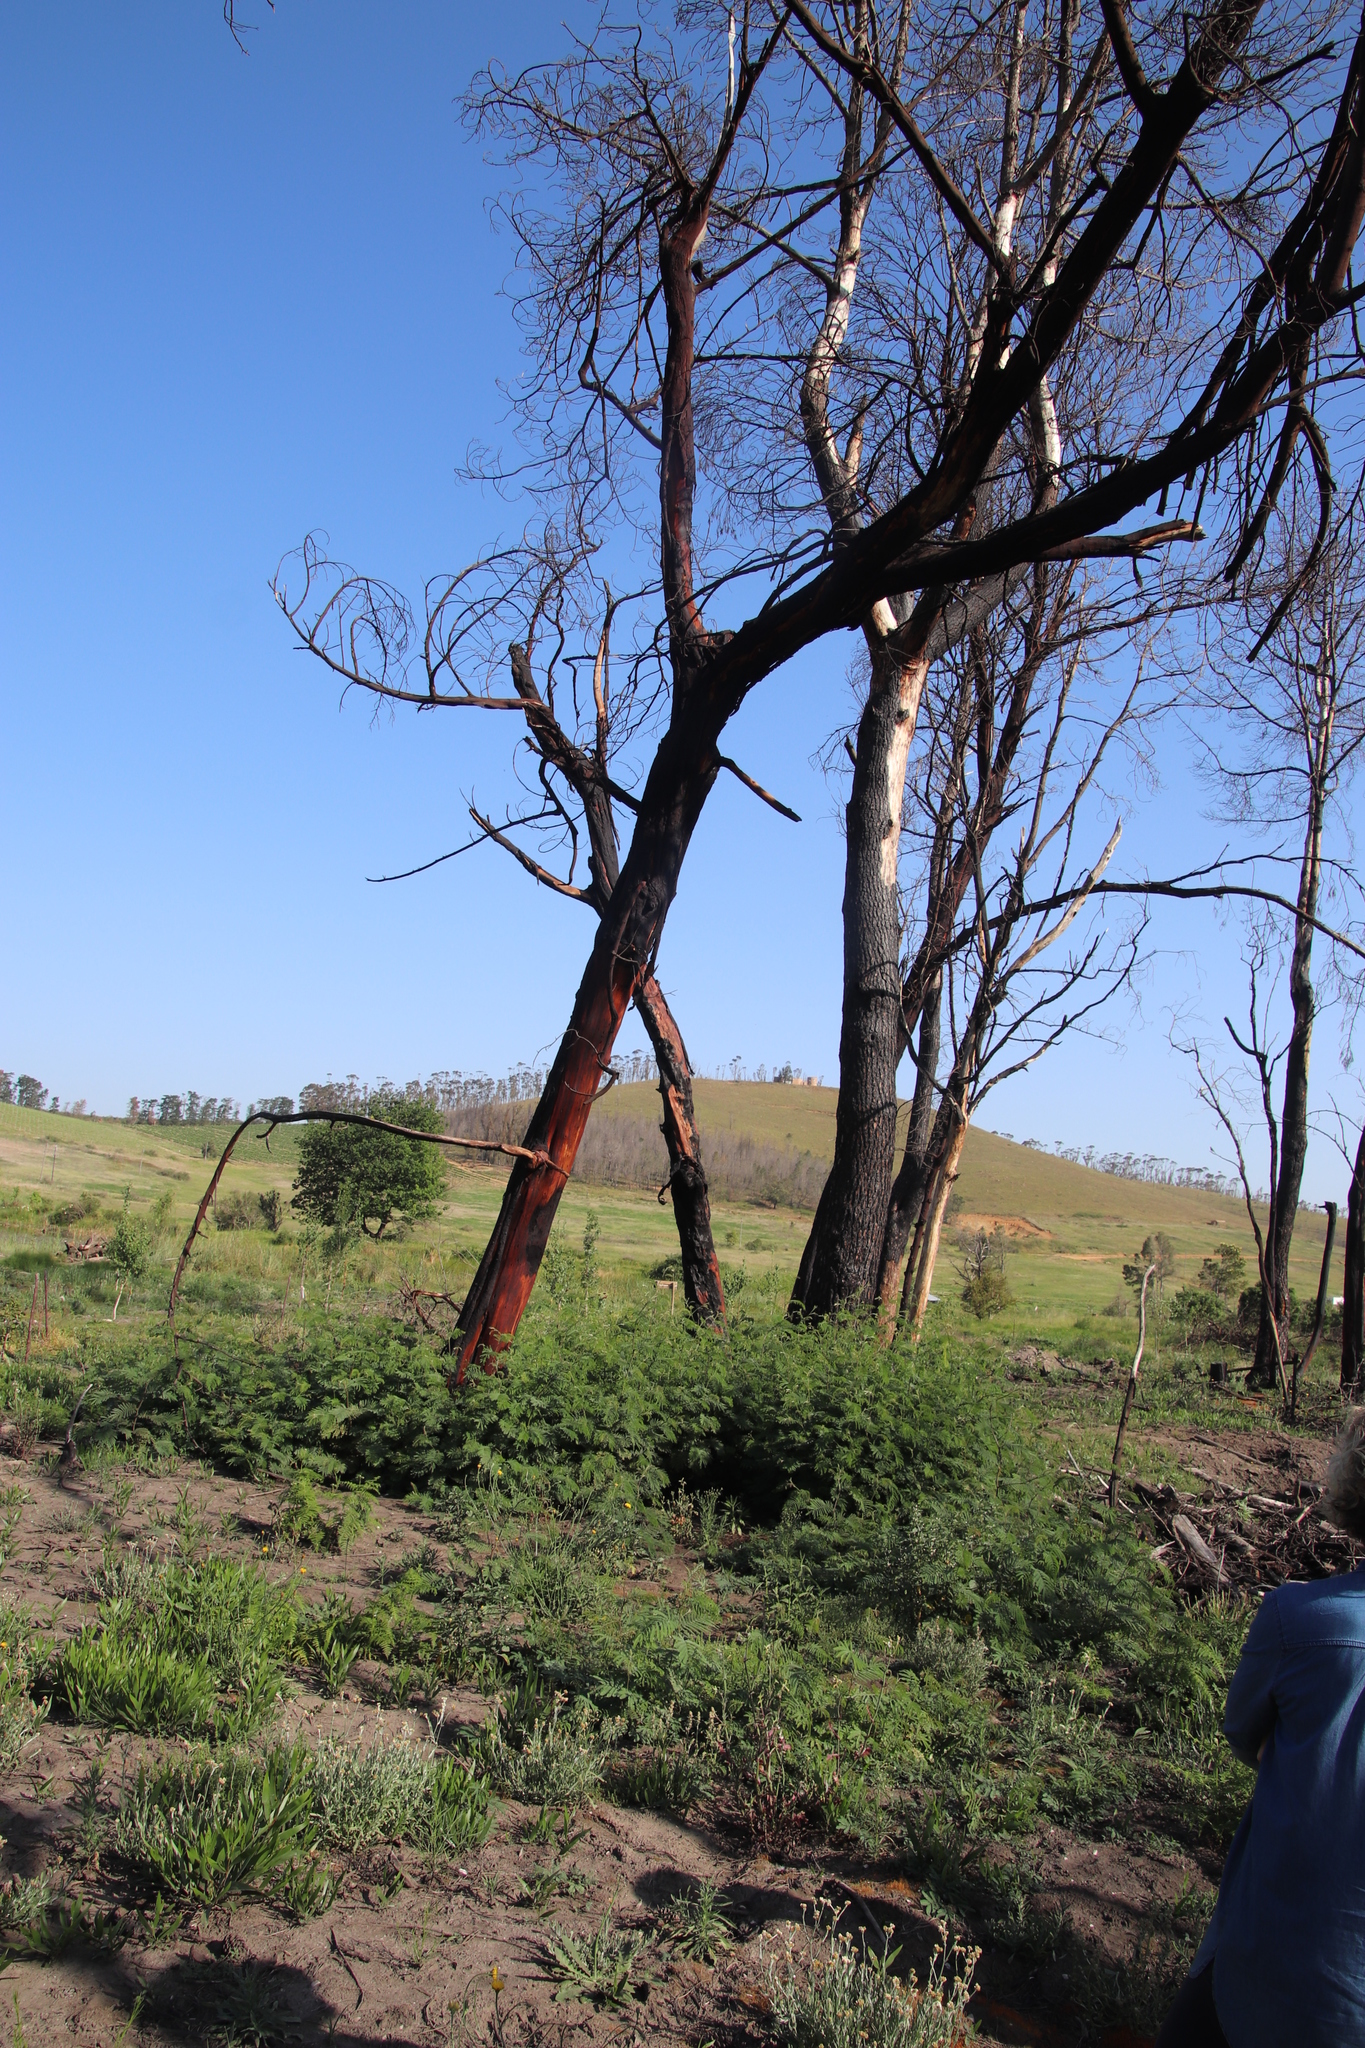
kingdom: Plantae
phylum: Tracheophyta
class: Magnoliopsida
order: Fabales
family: Fabaceae
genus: Acacia
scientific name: Acacia mearnsii
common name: Black wattle
